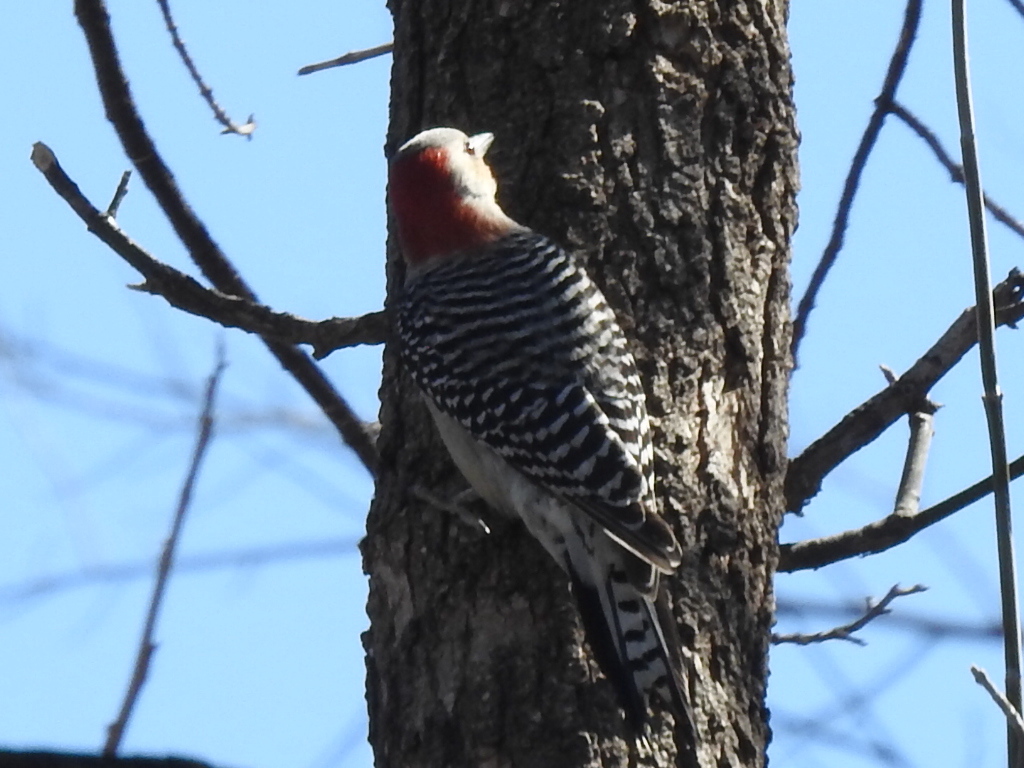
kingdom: Animalia
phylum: Chordata
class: Aves
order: Piciformes
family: Picidae
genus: Melanerpes
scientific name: Melanerpes carolinus
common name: Red-bellied woodpecker
